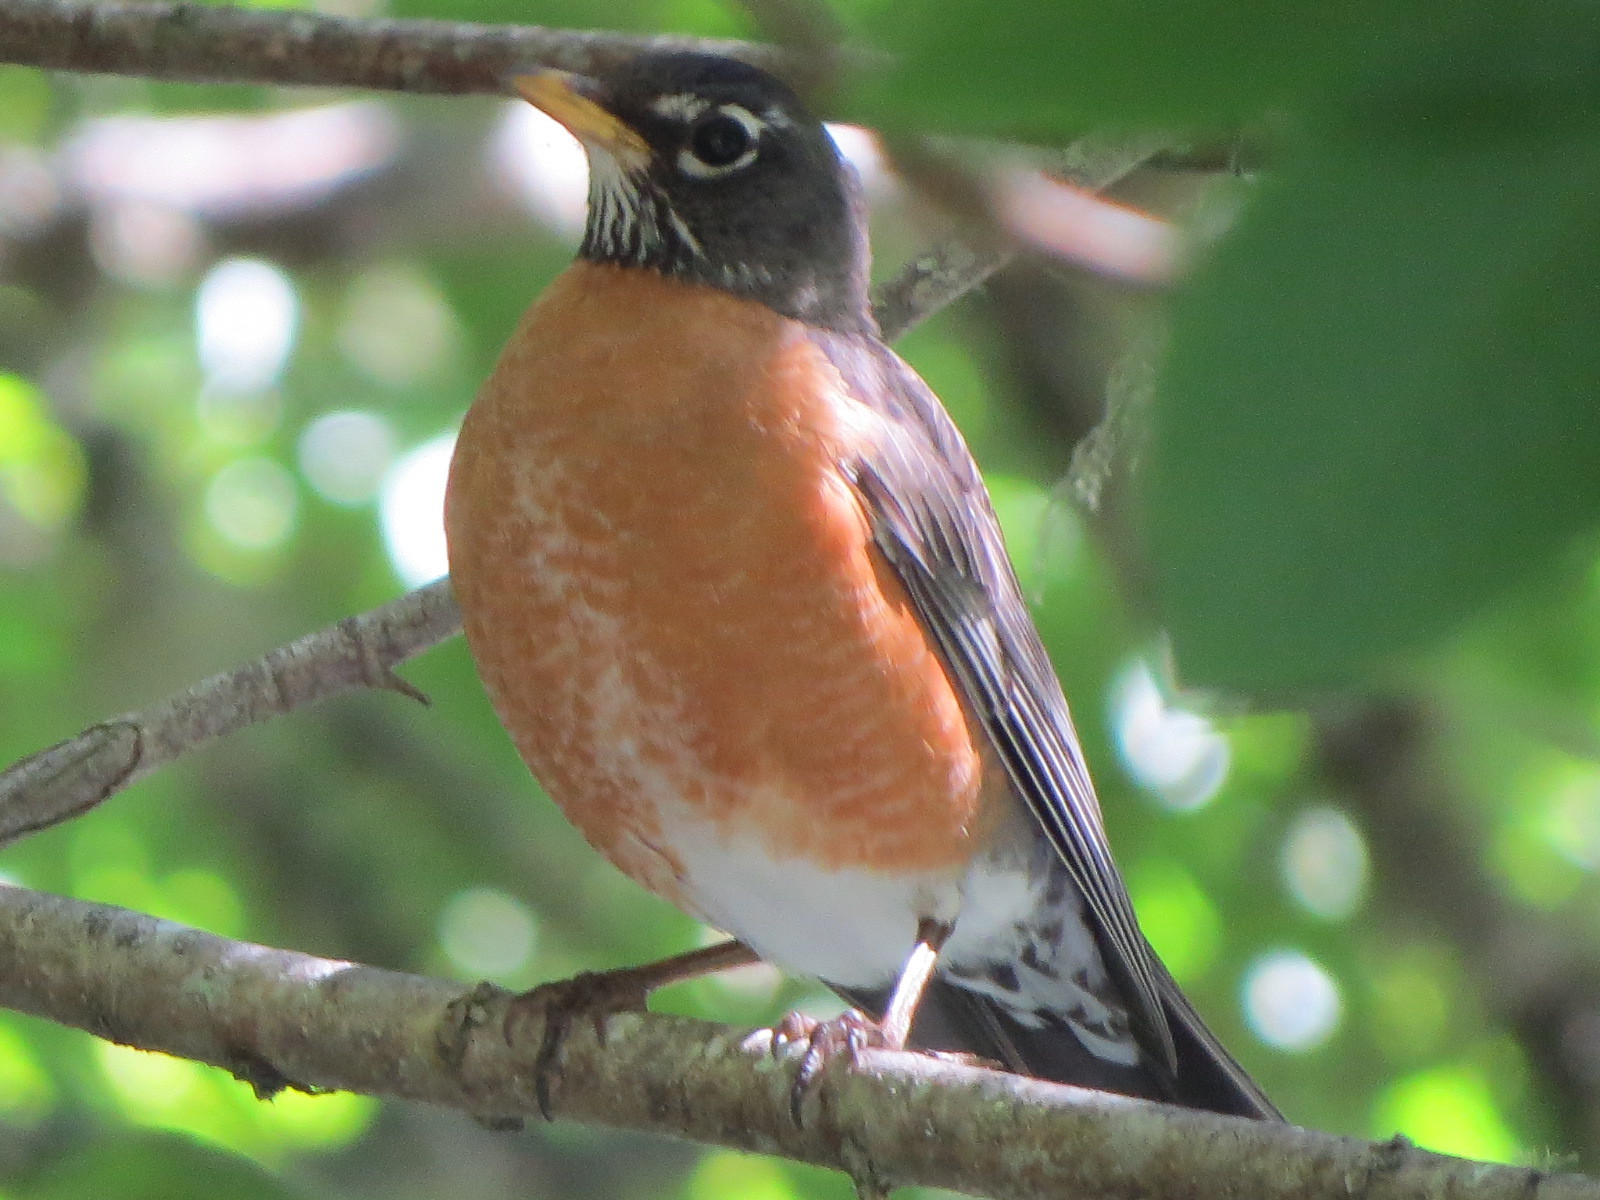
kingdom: Animalia
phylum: Chordata
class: Aves
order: Passeriformes
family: Turdidae
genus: Turdus
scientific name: Turdus migratorius
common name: American robin
